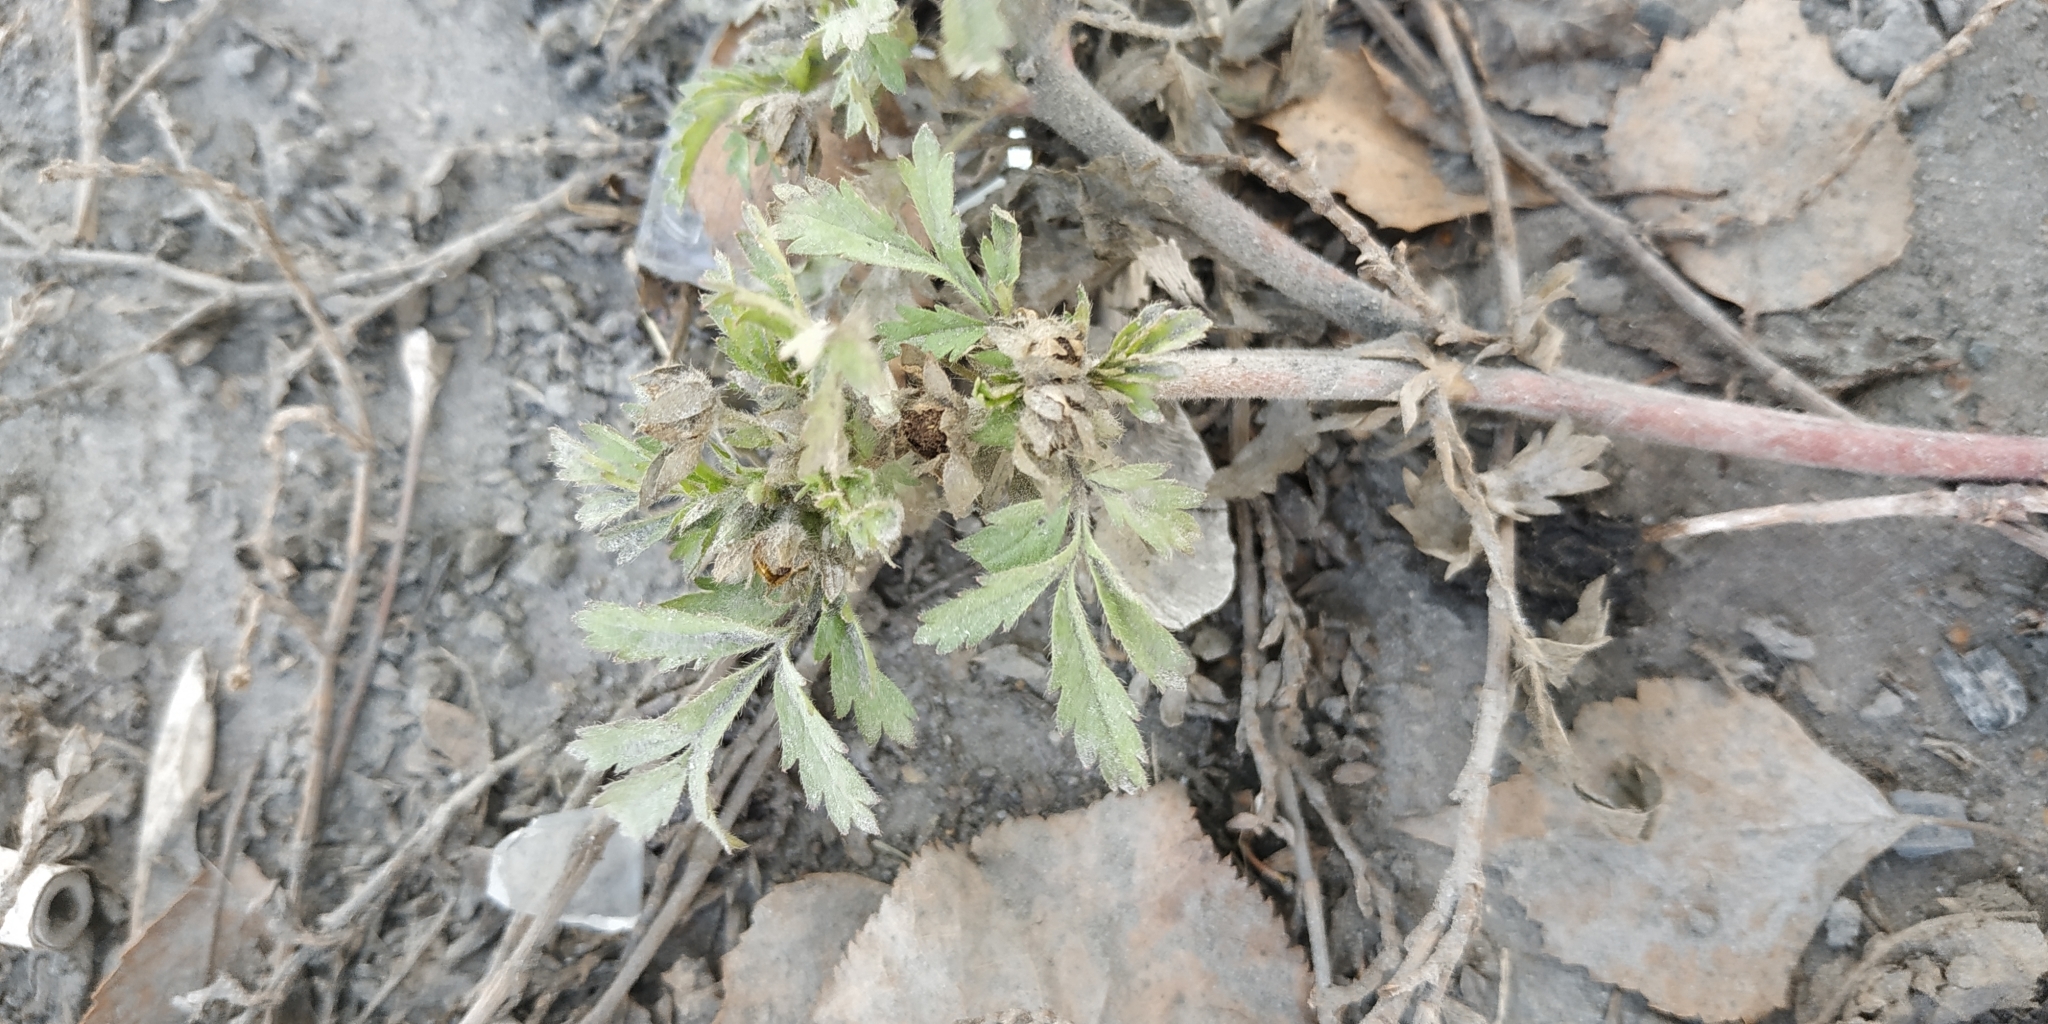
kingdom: Plantae
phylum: Tracheophyta
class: Magnoliopsida
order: Rosales
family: Rosaceae
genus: Potentilla
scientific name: Potentilla tobolensis
